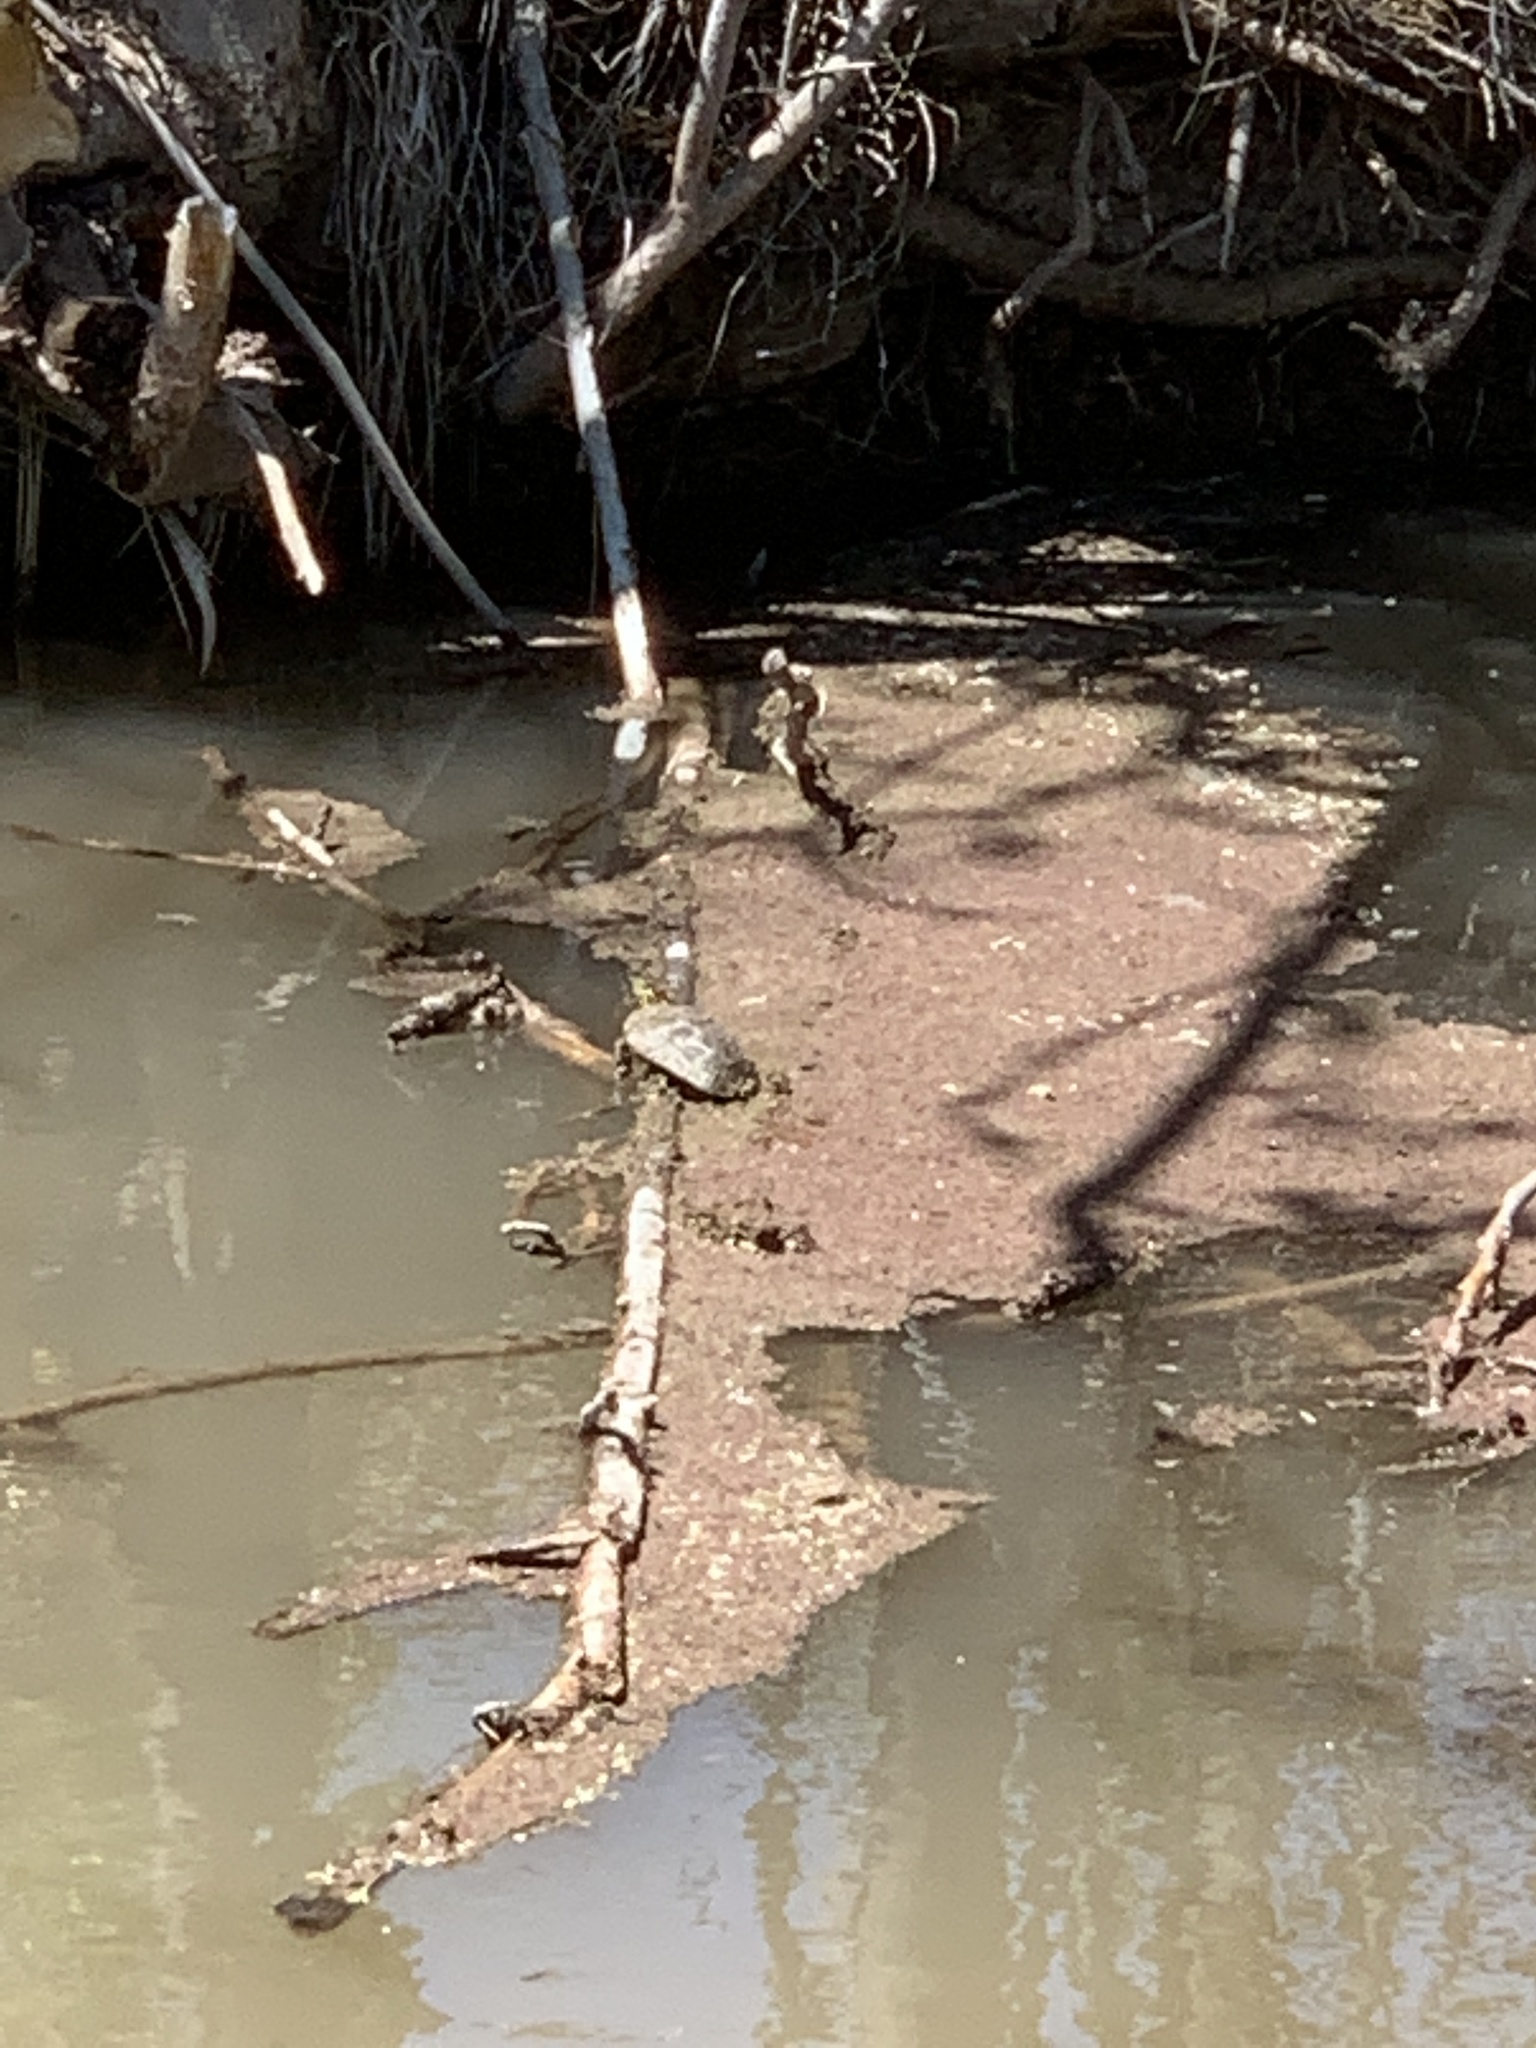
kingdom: Animalia
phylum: Chordata
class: Testudines
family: Emydidae
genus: Chrysemys
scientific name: Chrysemys picta
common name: Painted turtle
